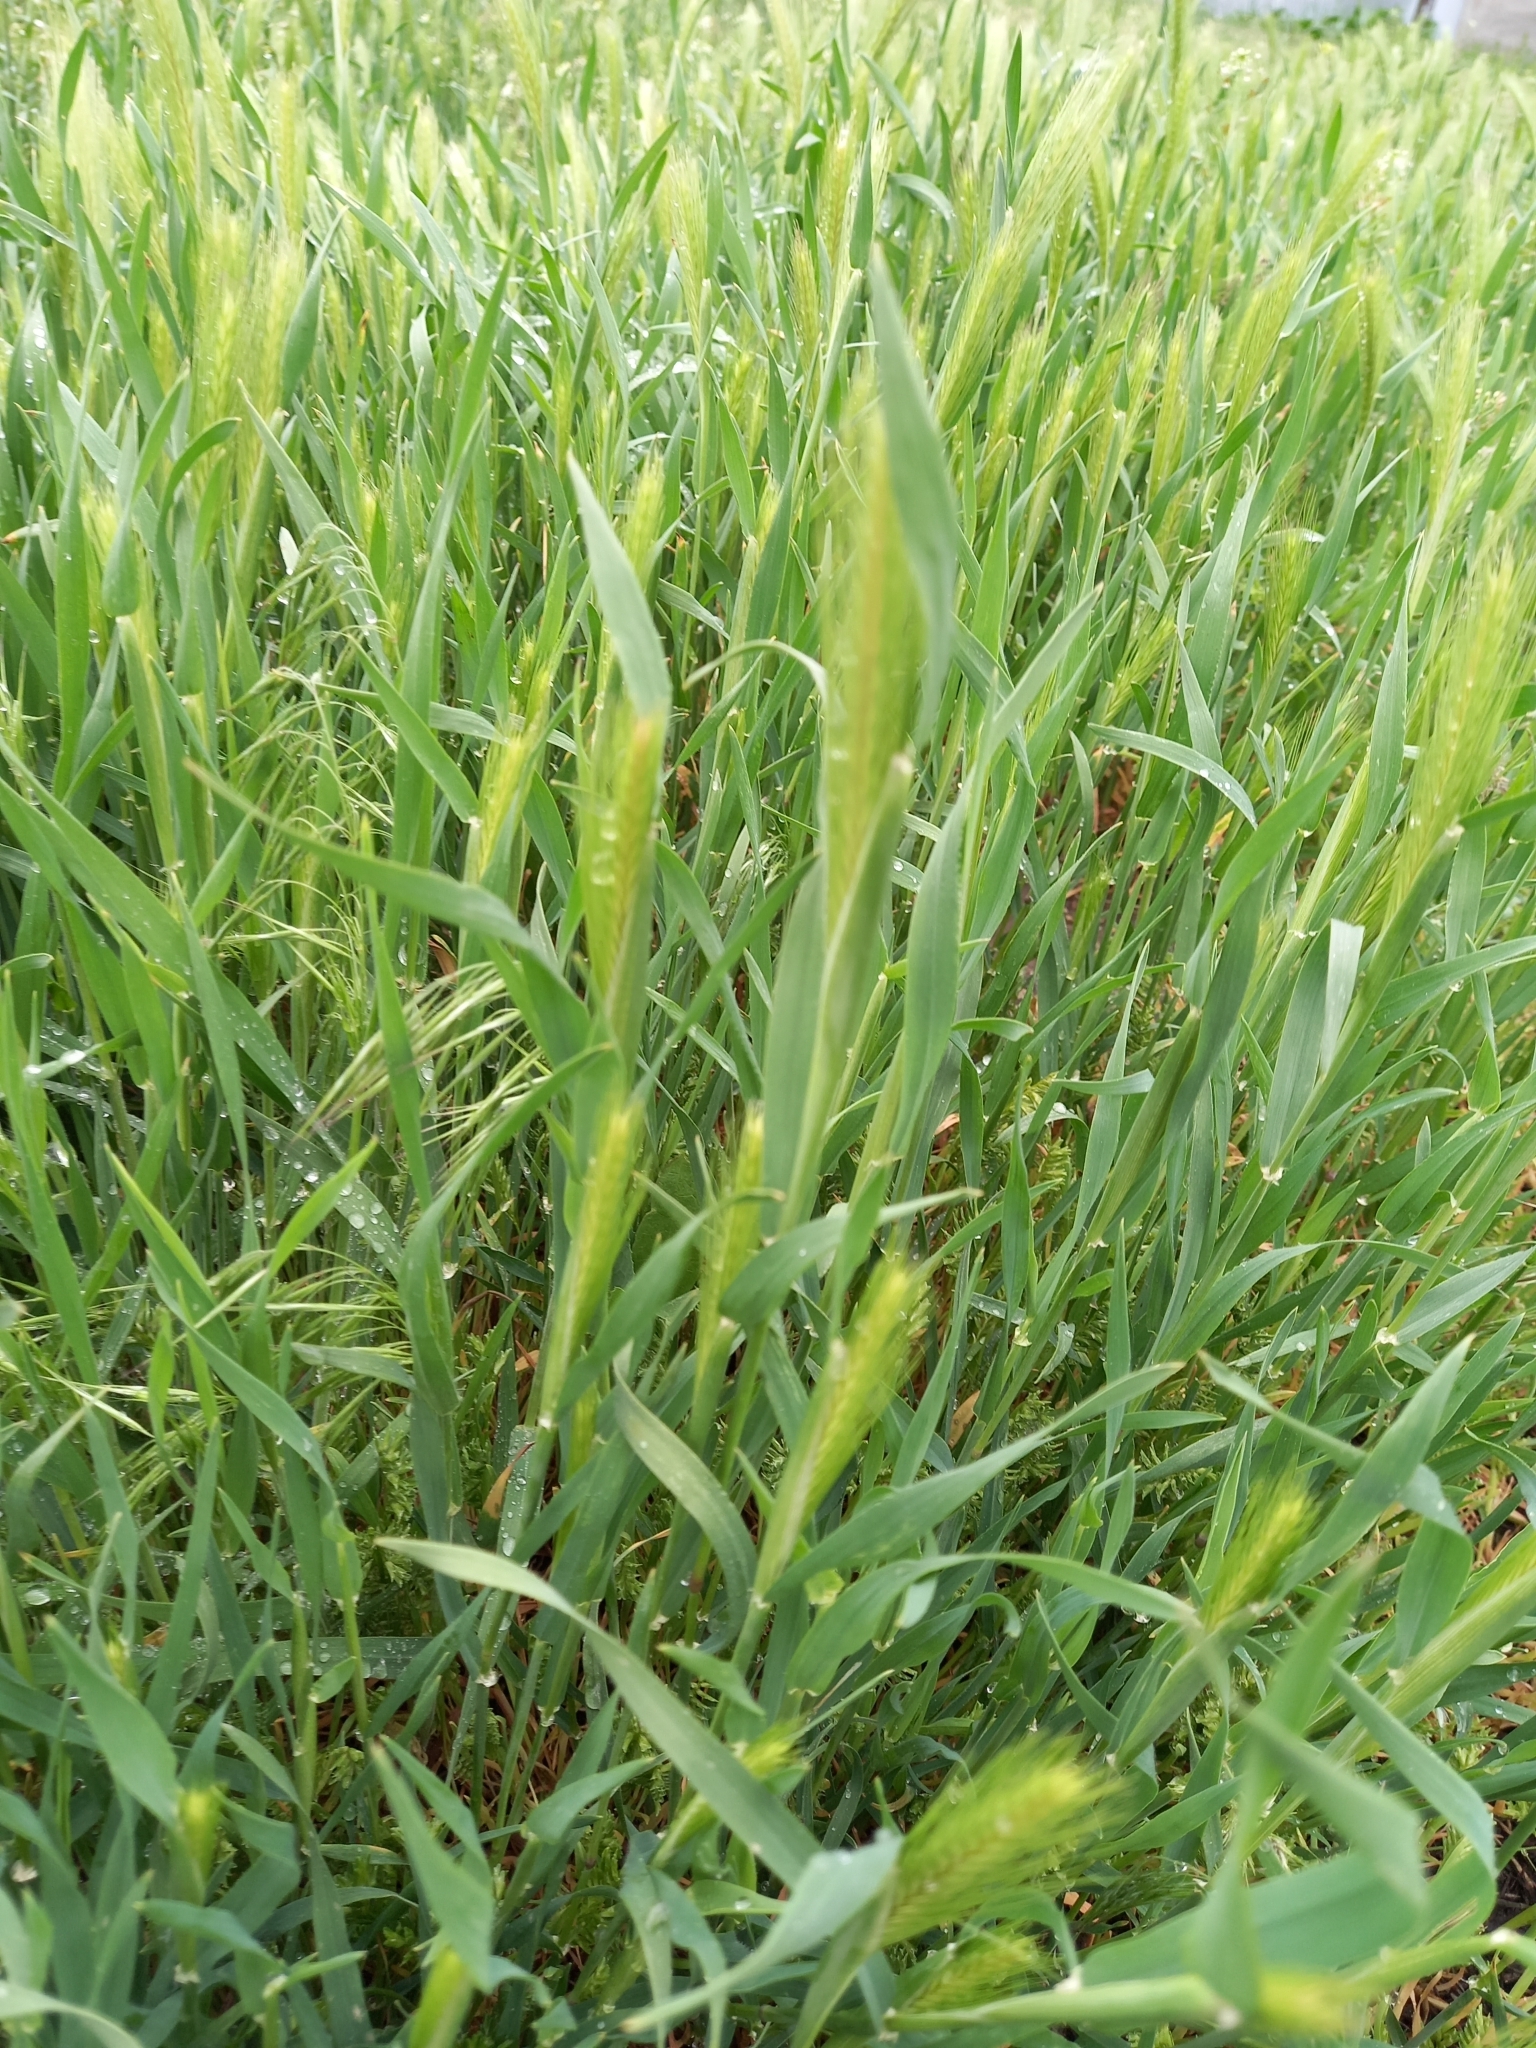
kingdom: Plantae
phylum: Tracheophyta
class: Liliopsida
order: Poales
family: Poaceae
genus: Hordeum
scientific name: Hordeum murinum
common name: Wall barley
